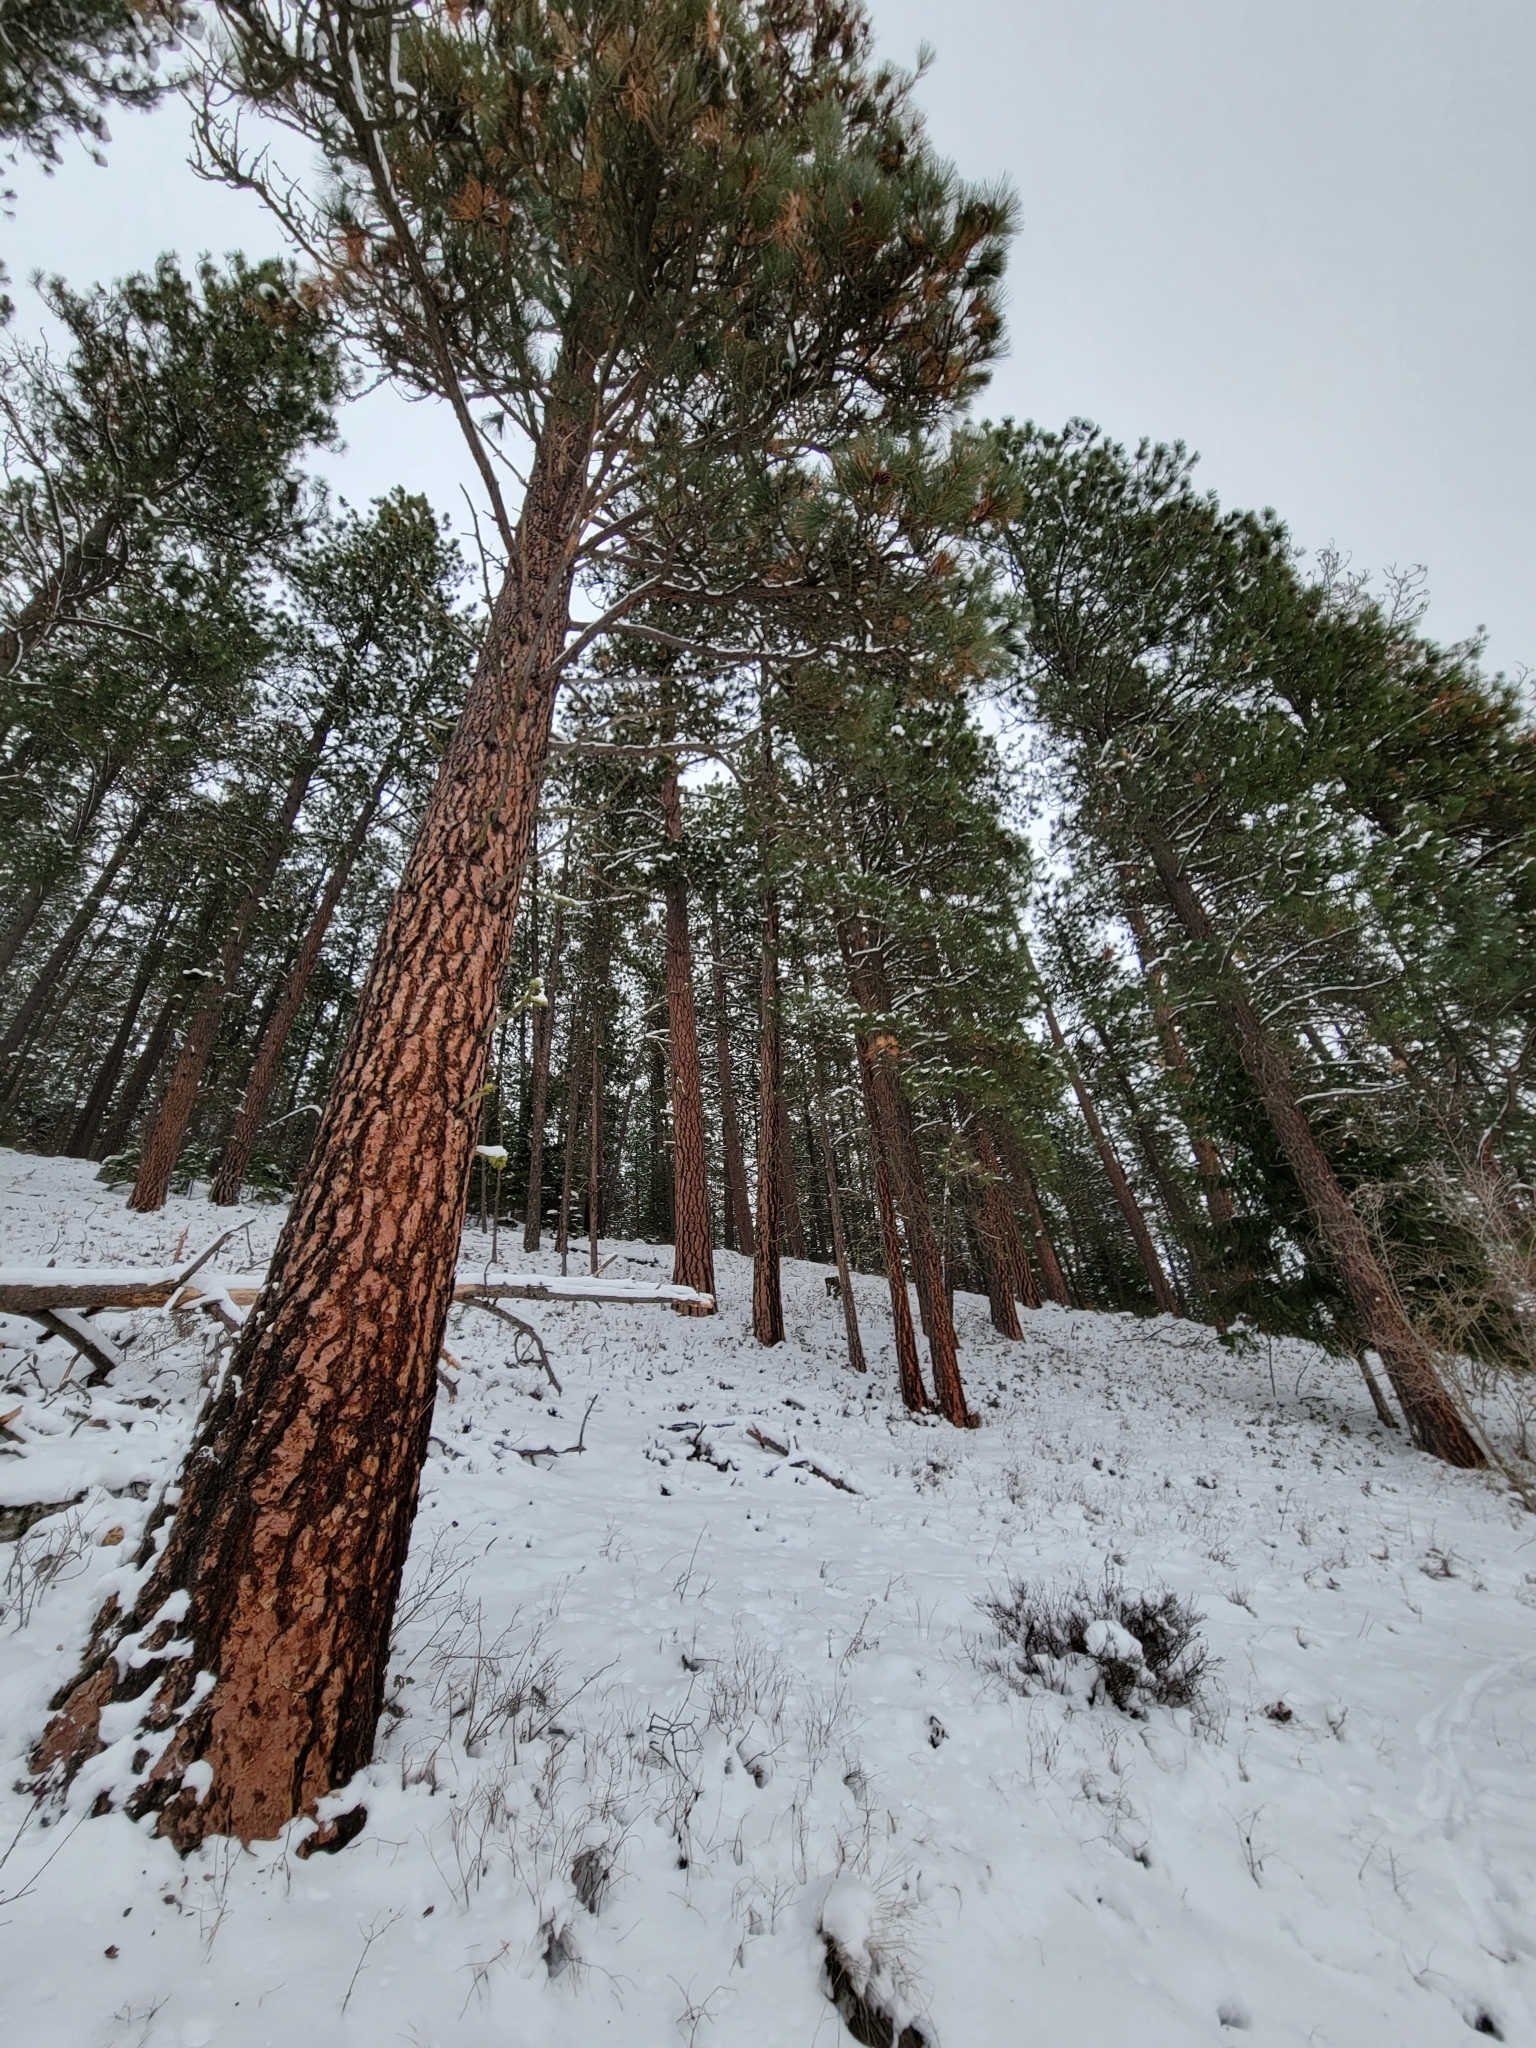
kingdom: Plantae
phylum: Tracheophyta
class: Pinopsida
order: Pinales
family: Pinaceae
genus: Pinus
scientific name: Pinus ponderosa
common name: Western yellow-pine
